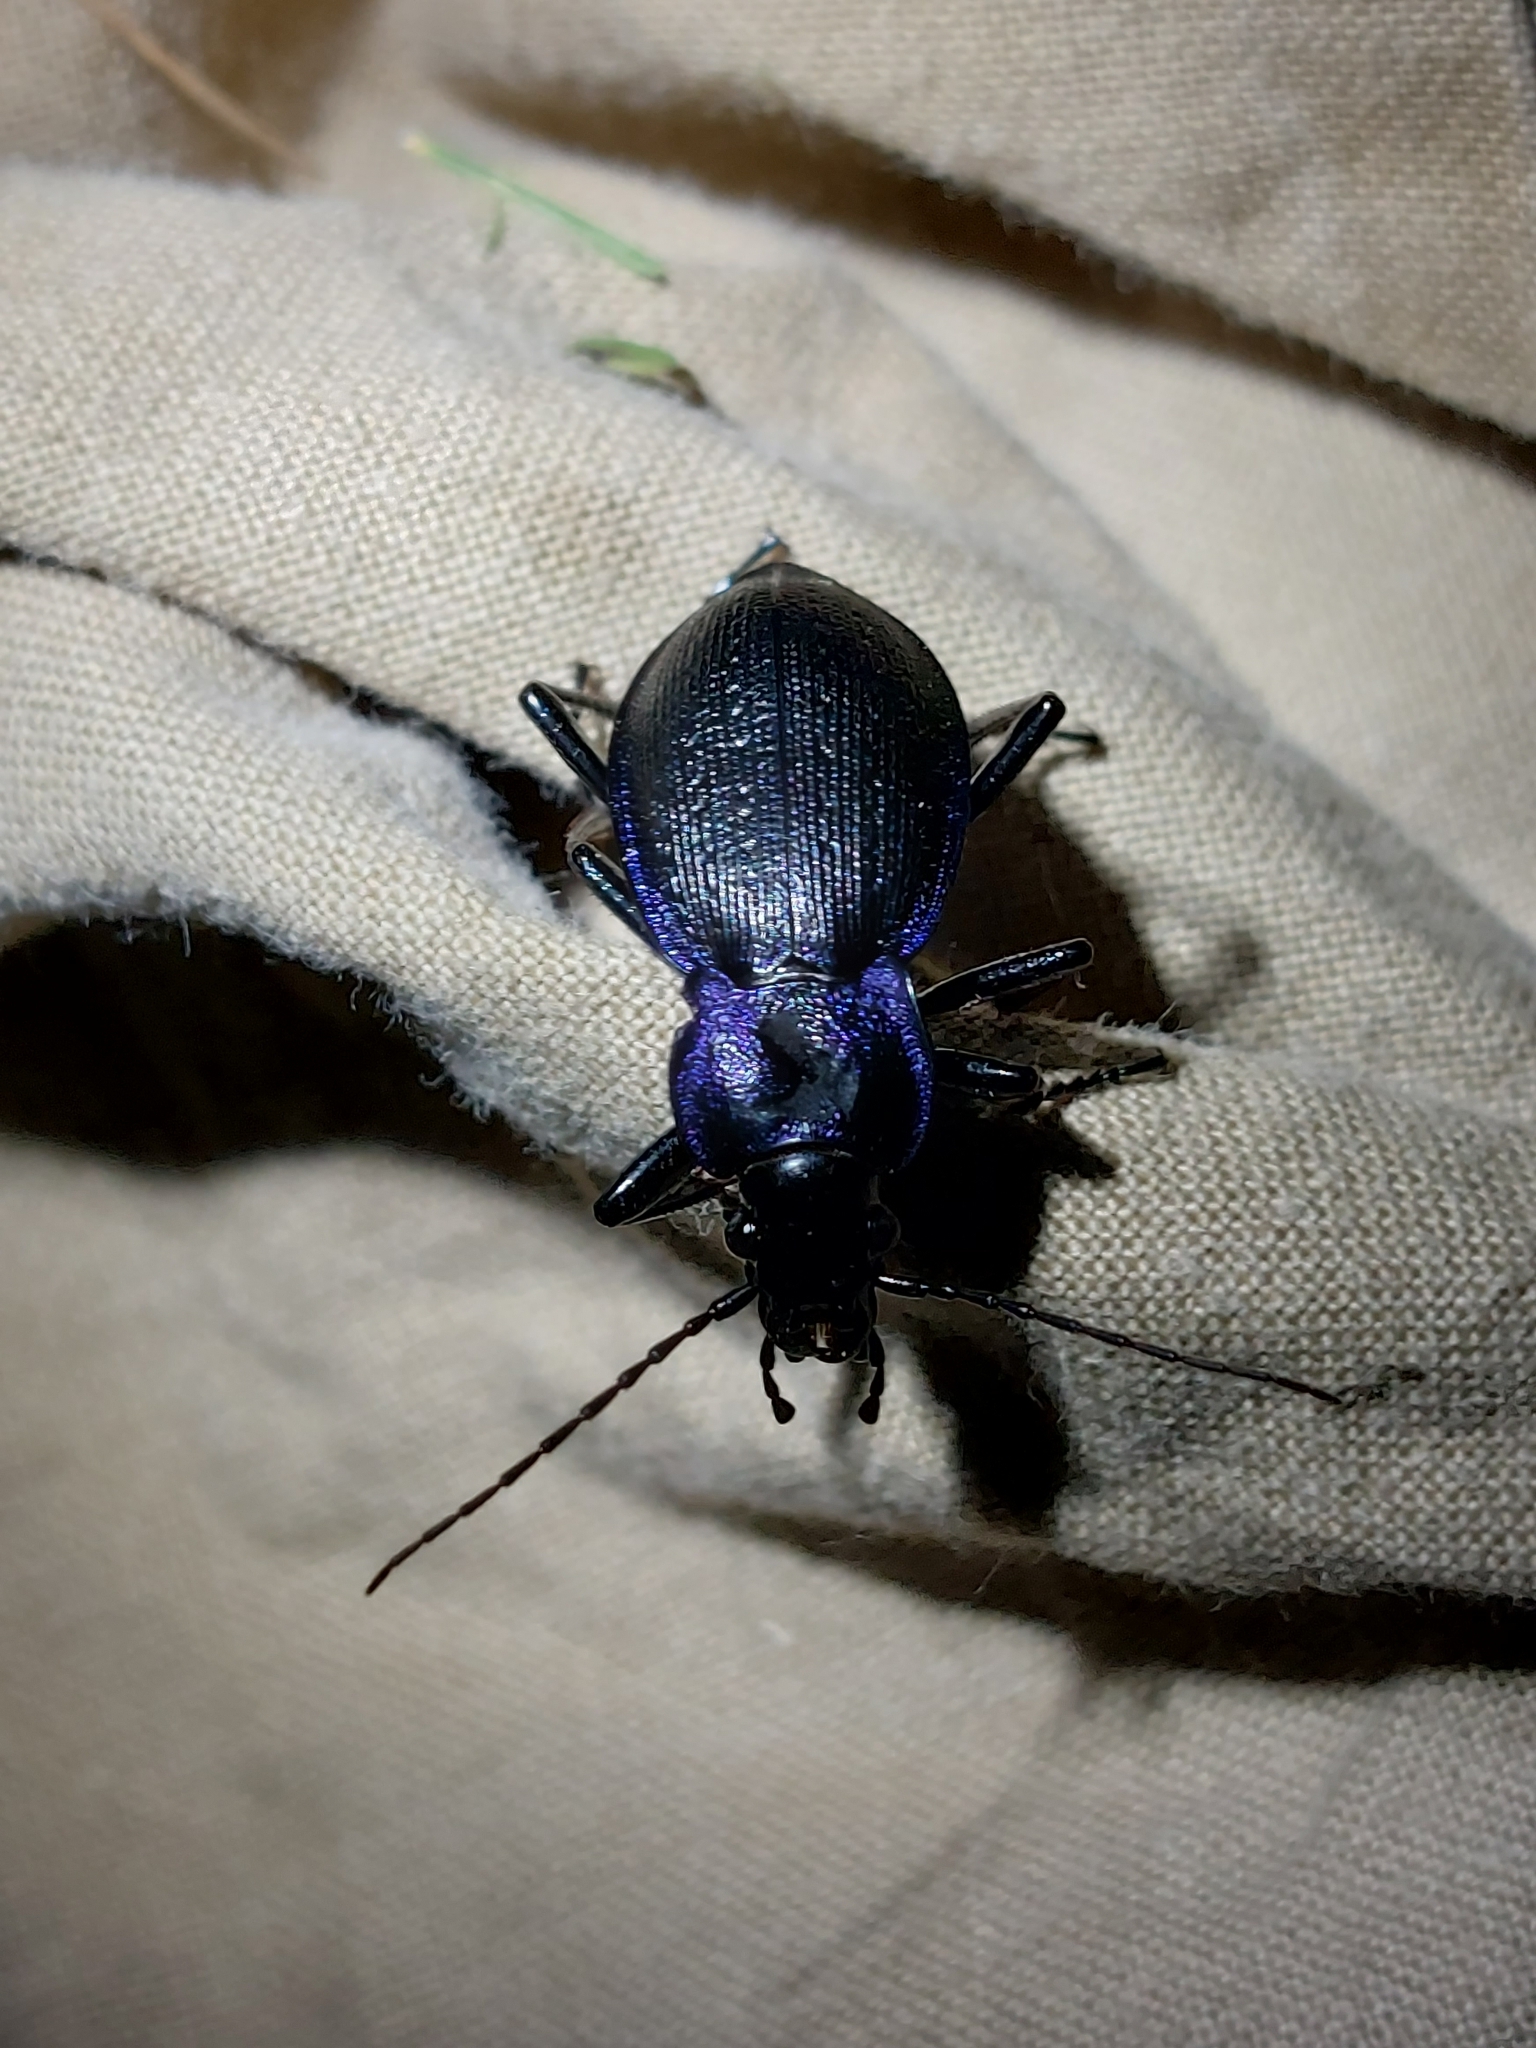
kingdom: Animalia
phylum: Arthropoda
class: Insecta
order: Coleoptera
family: Carabidae
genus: Carabus
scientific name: Carabus problematicus
